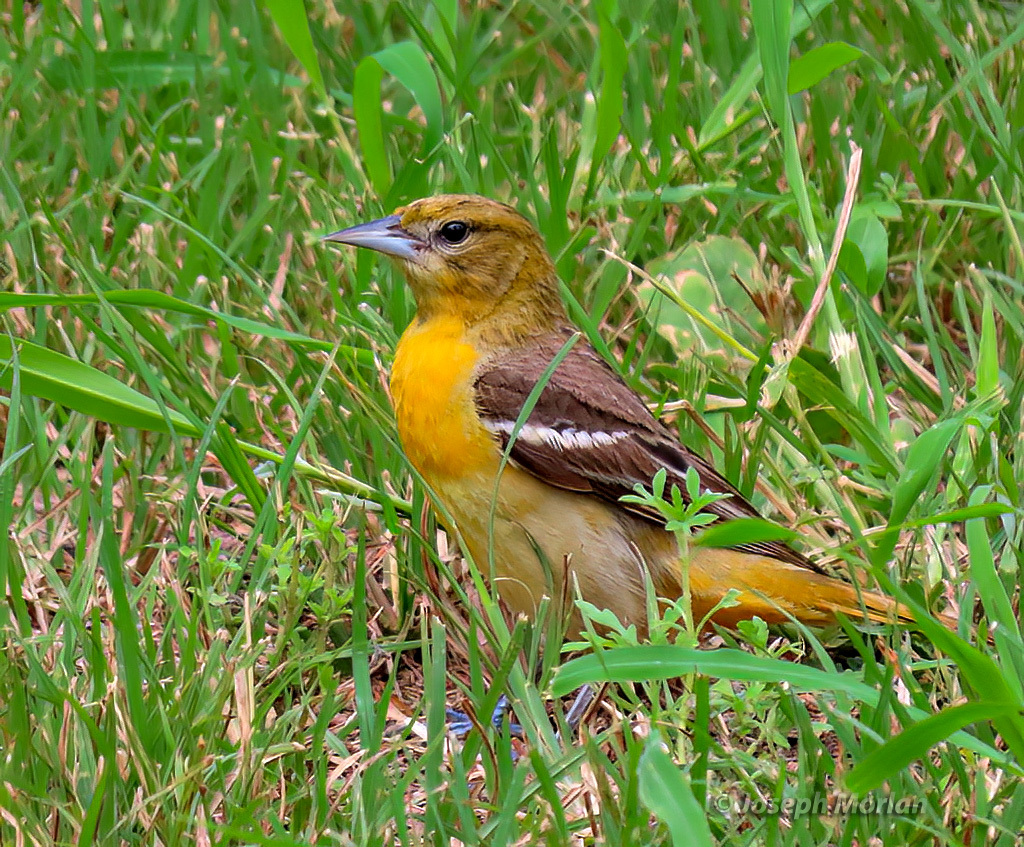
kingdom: Animalia
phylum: Chordata
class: Aves
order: Passeriformes
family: Icteridae
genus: Icterus
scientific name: Icterus galbula
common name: Baltimore oriole
